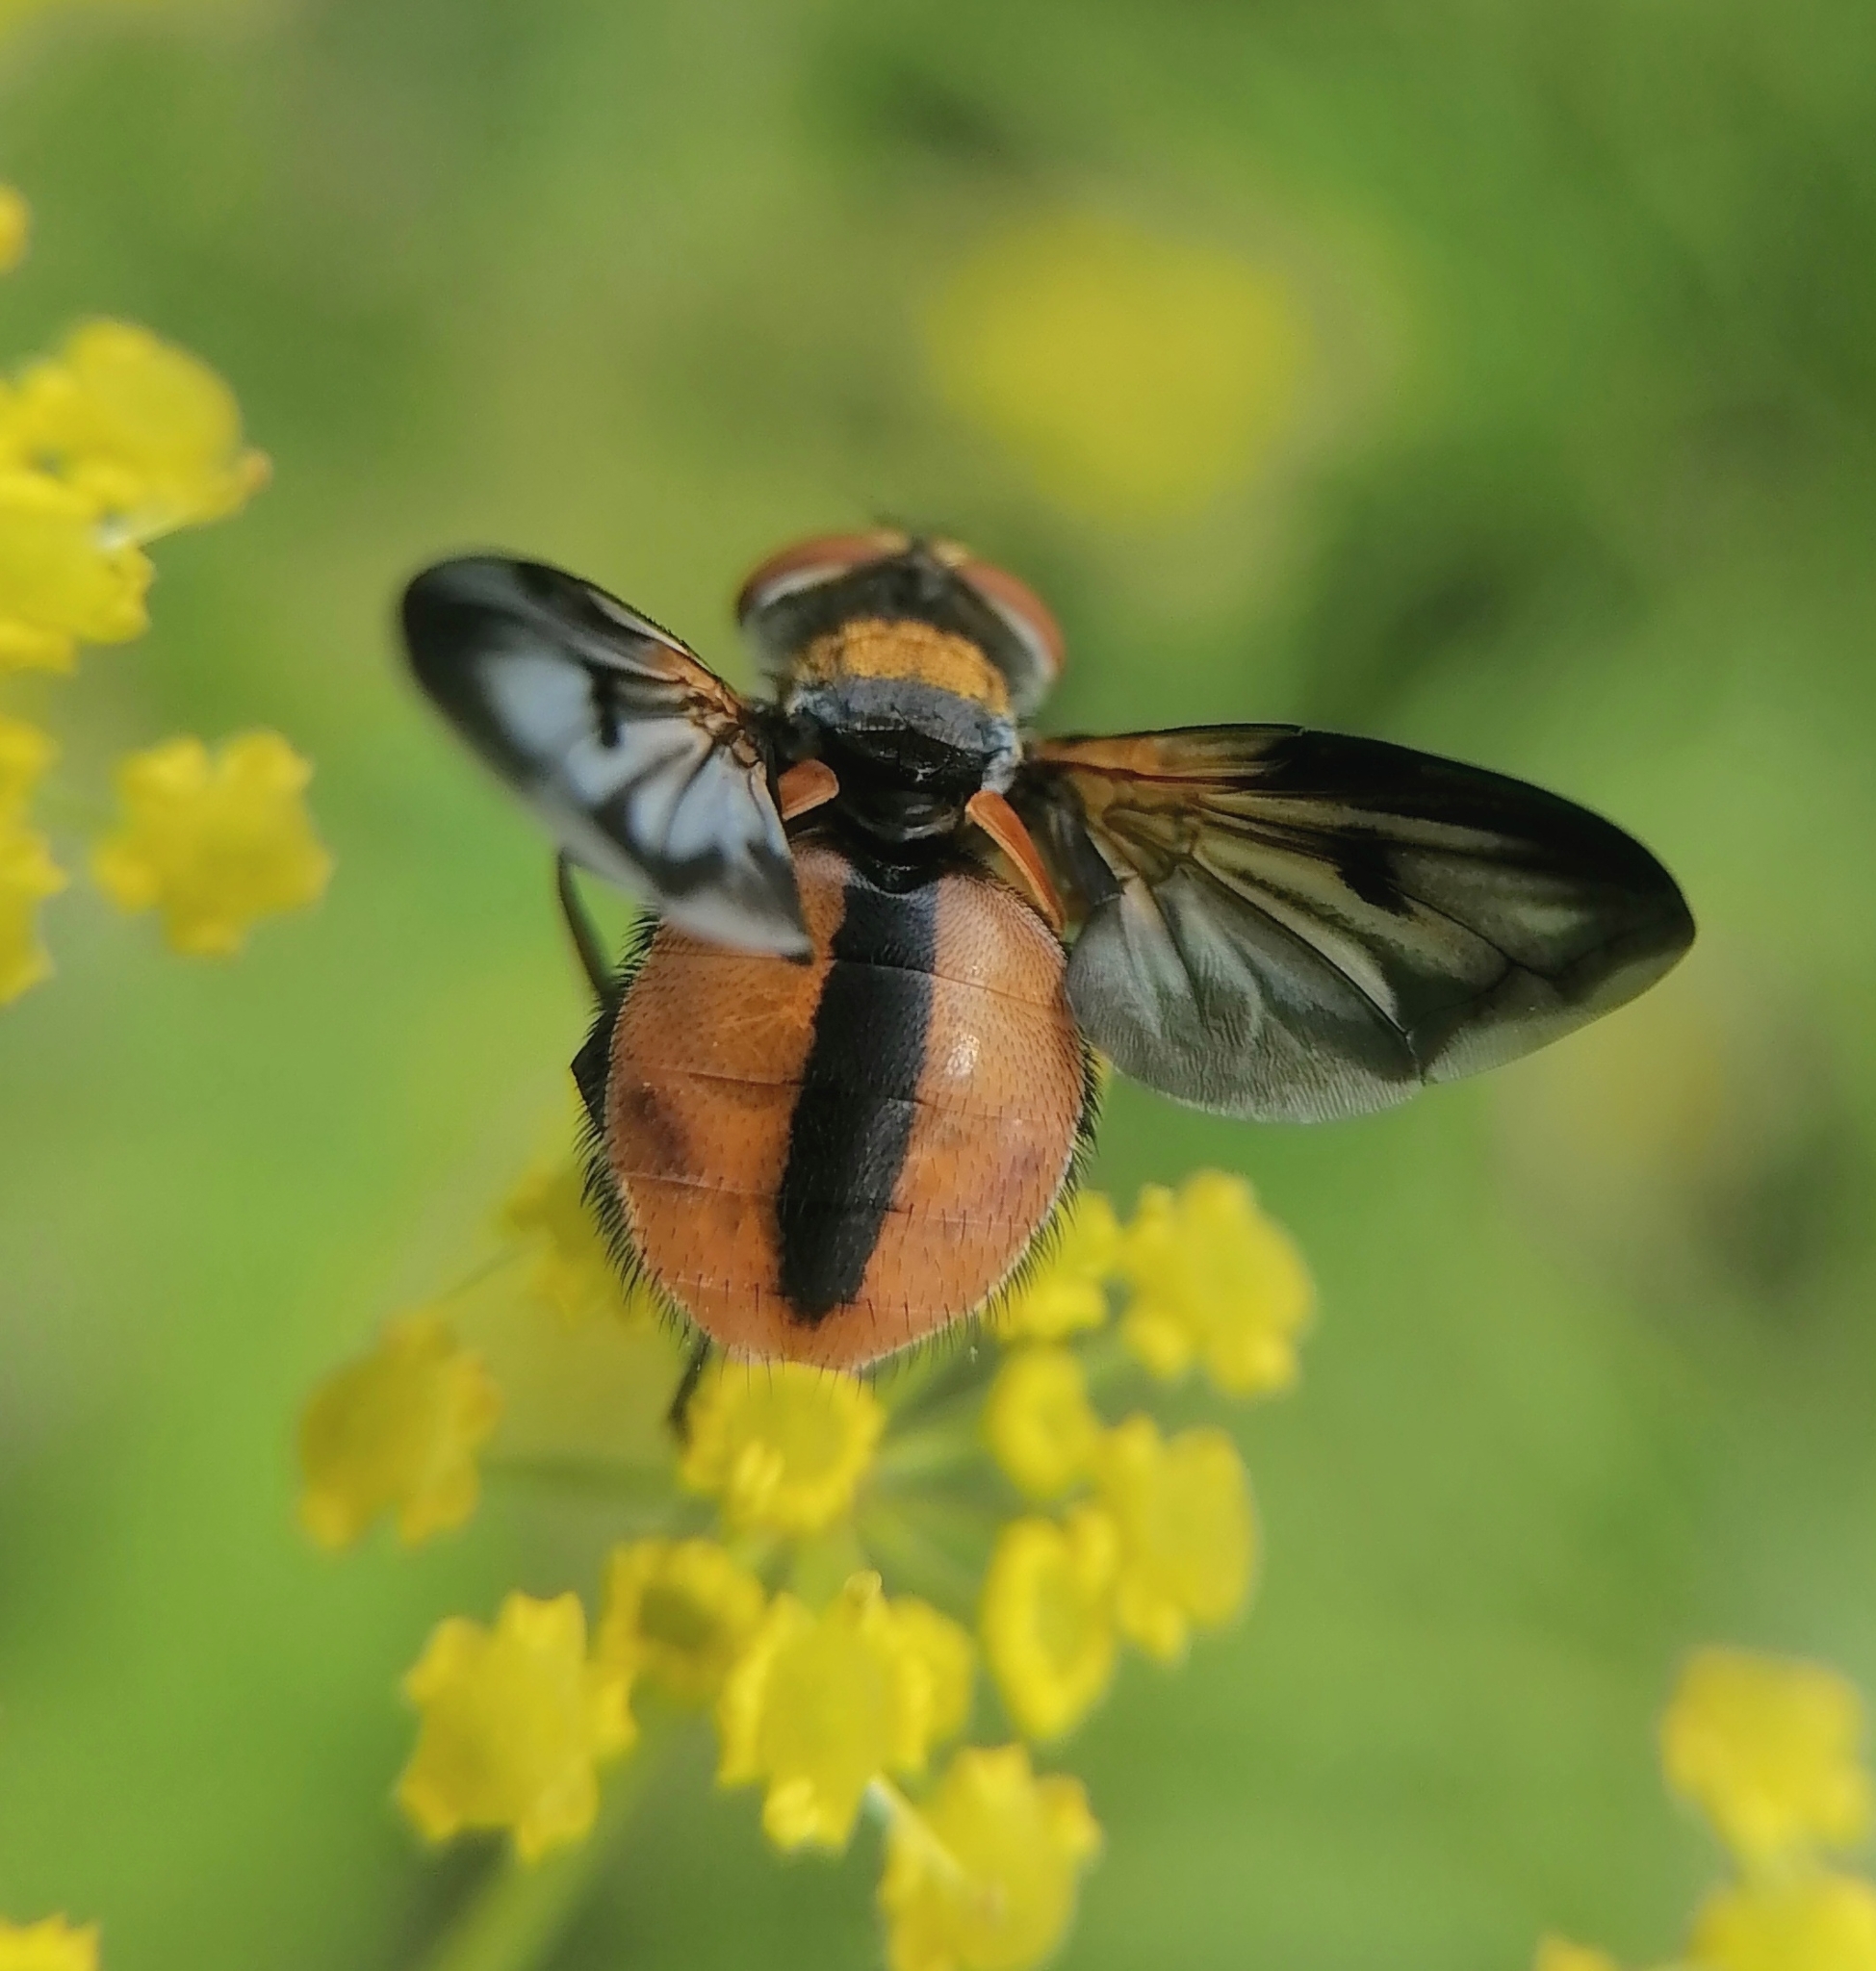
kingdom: Animalia
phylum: Arthropoda
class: Insecta
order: Diptera
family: Tachinidae
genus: Ectophasia
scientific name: Ectophasia crassipennis
